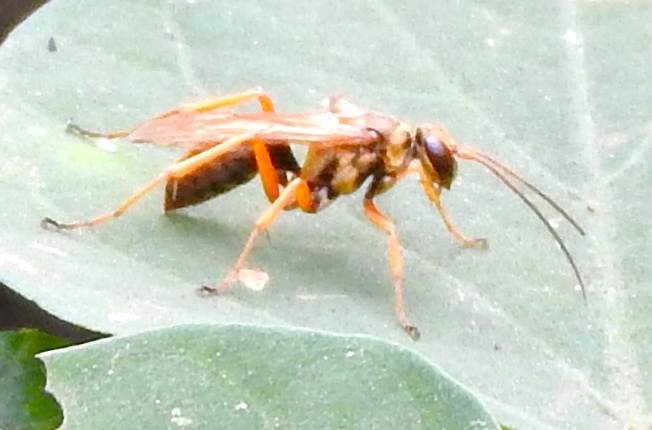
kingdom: Animalia
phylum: Arthropoda
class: Insecta
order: Hymenoptera
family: Pompilidae
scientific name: Pompilidae
